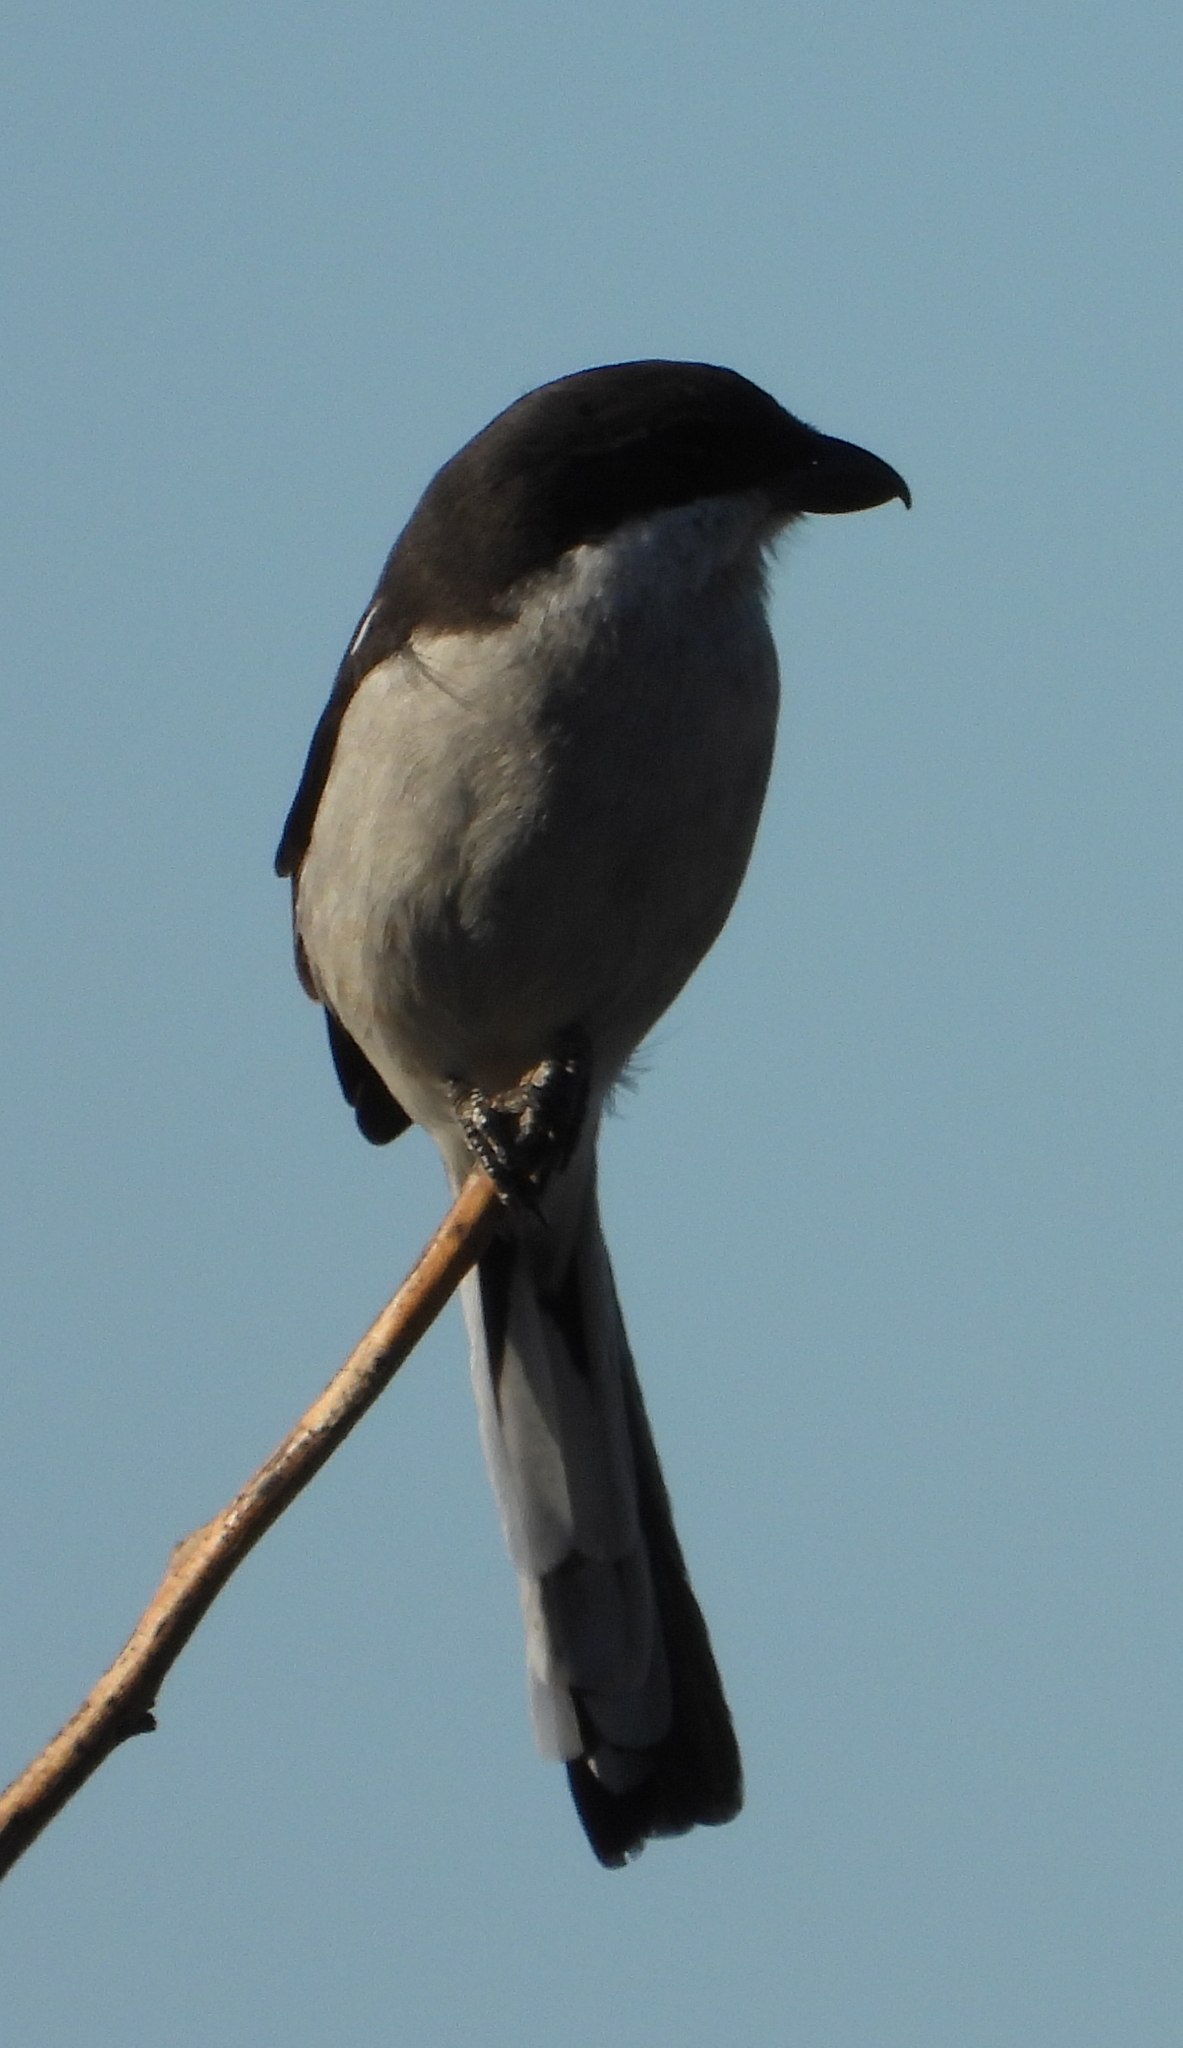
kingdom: Animalia
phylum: Chordata
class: Aves
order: Passeriformes
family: Laniidae
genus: Lanius
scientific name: Lanius collaris
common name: Southern fiscal
